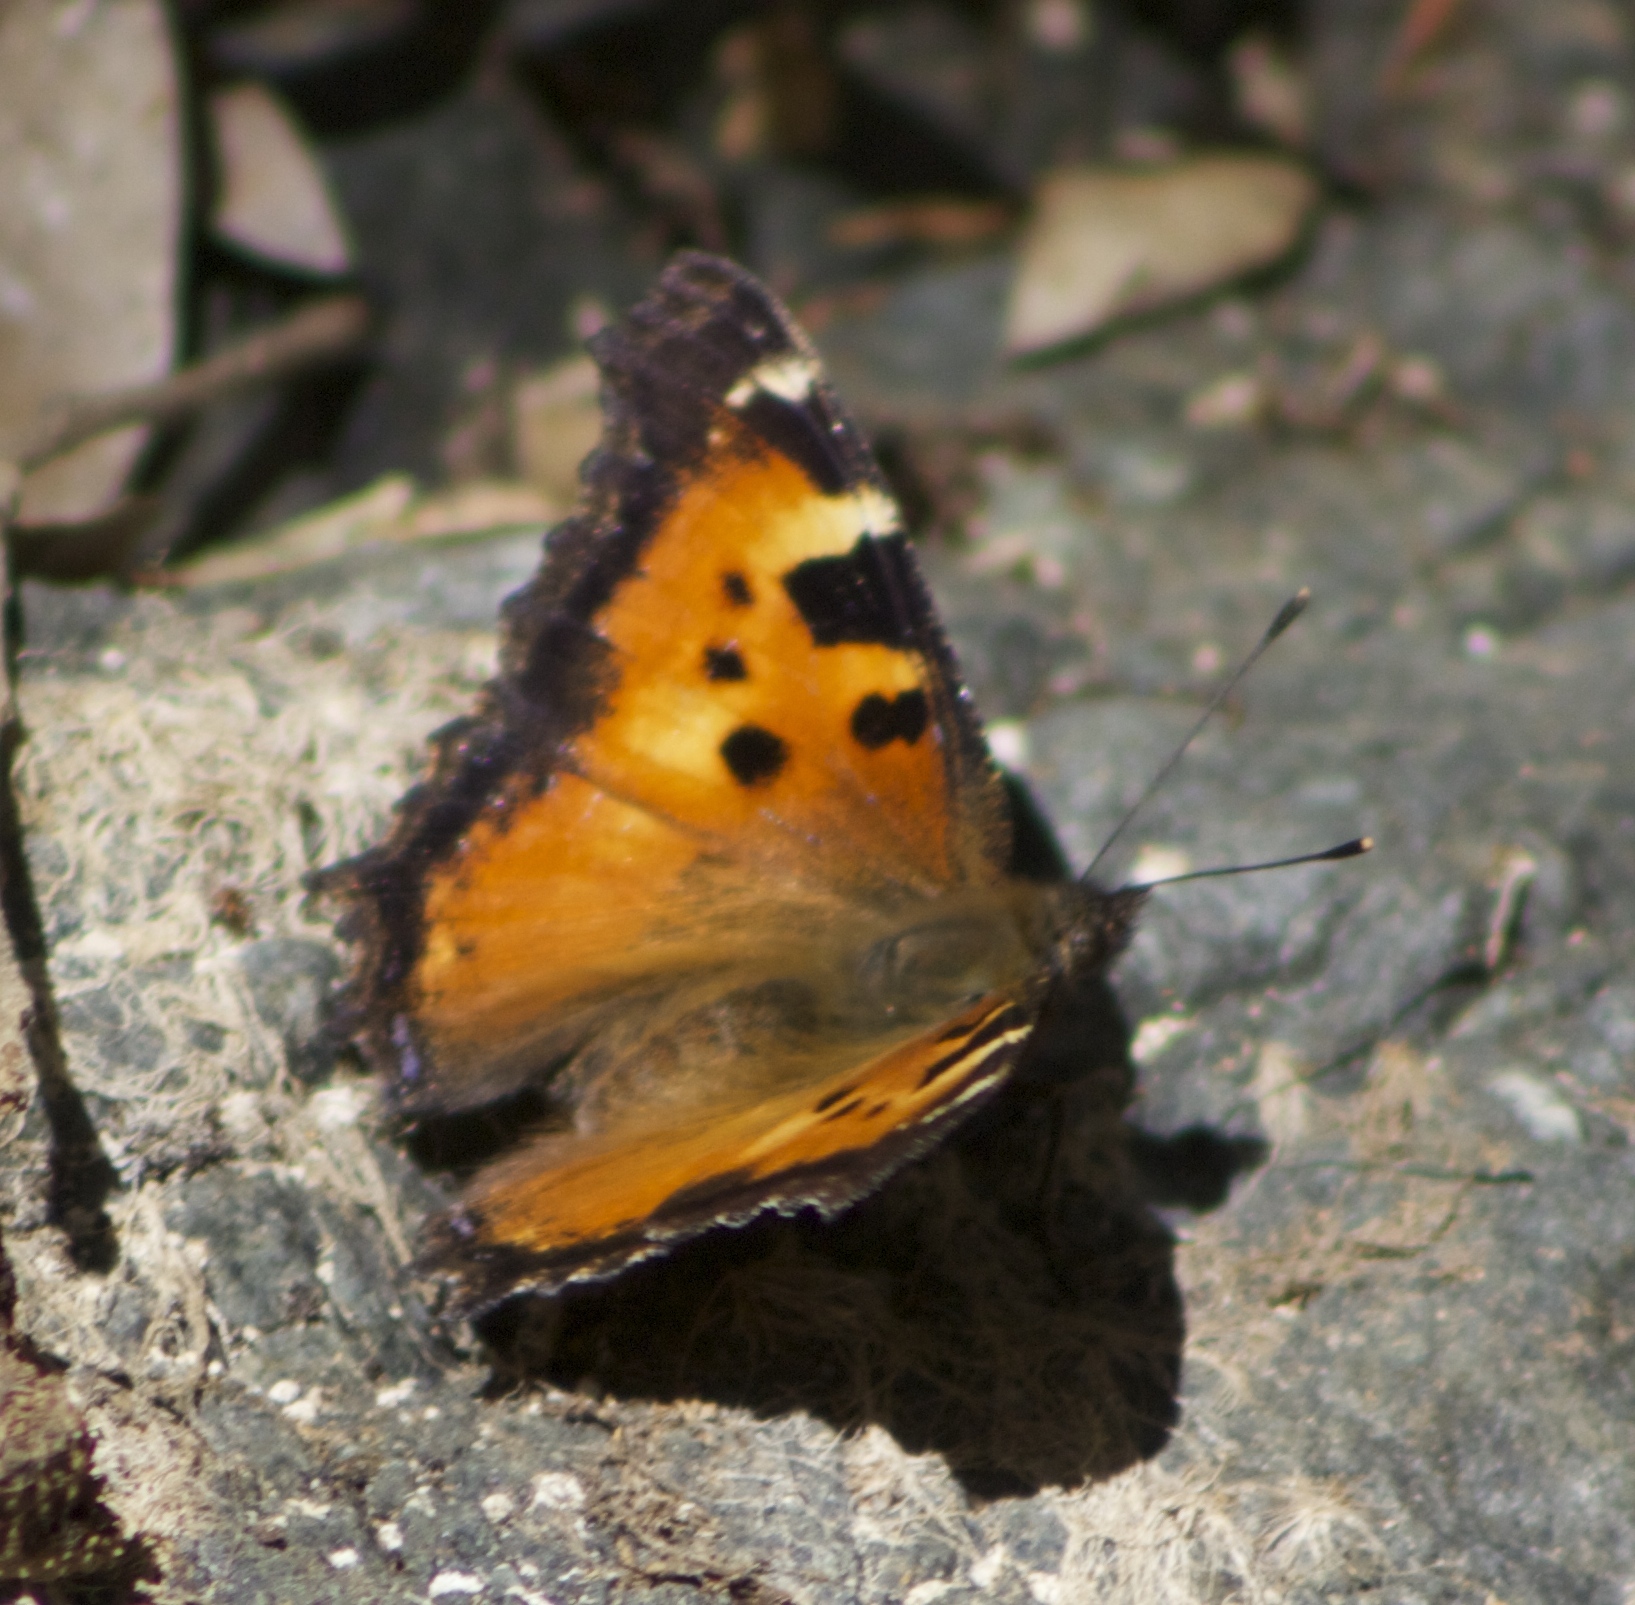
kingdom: Animalia
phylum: Arthropoda
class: Insecta
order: Lepidoptera
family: Nymphalidae
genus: Nymphalis
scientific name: Nymphalis californica
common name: California tortoiseshell
